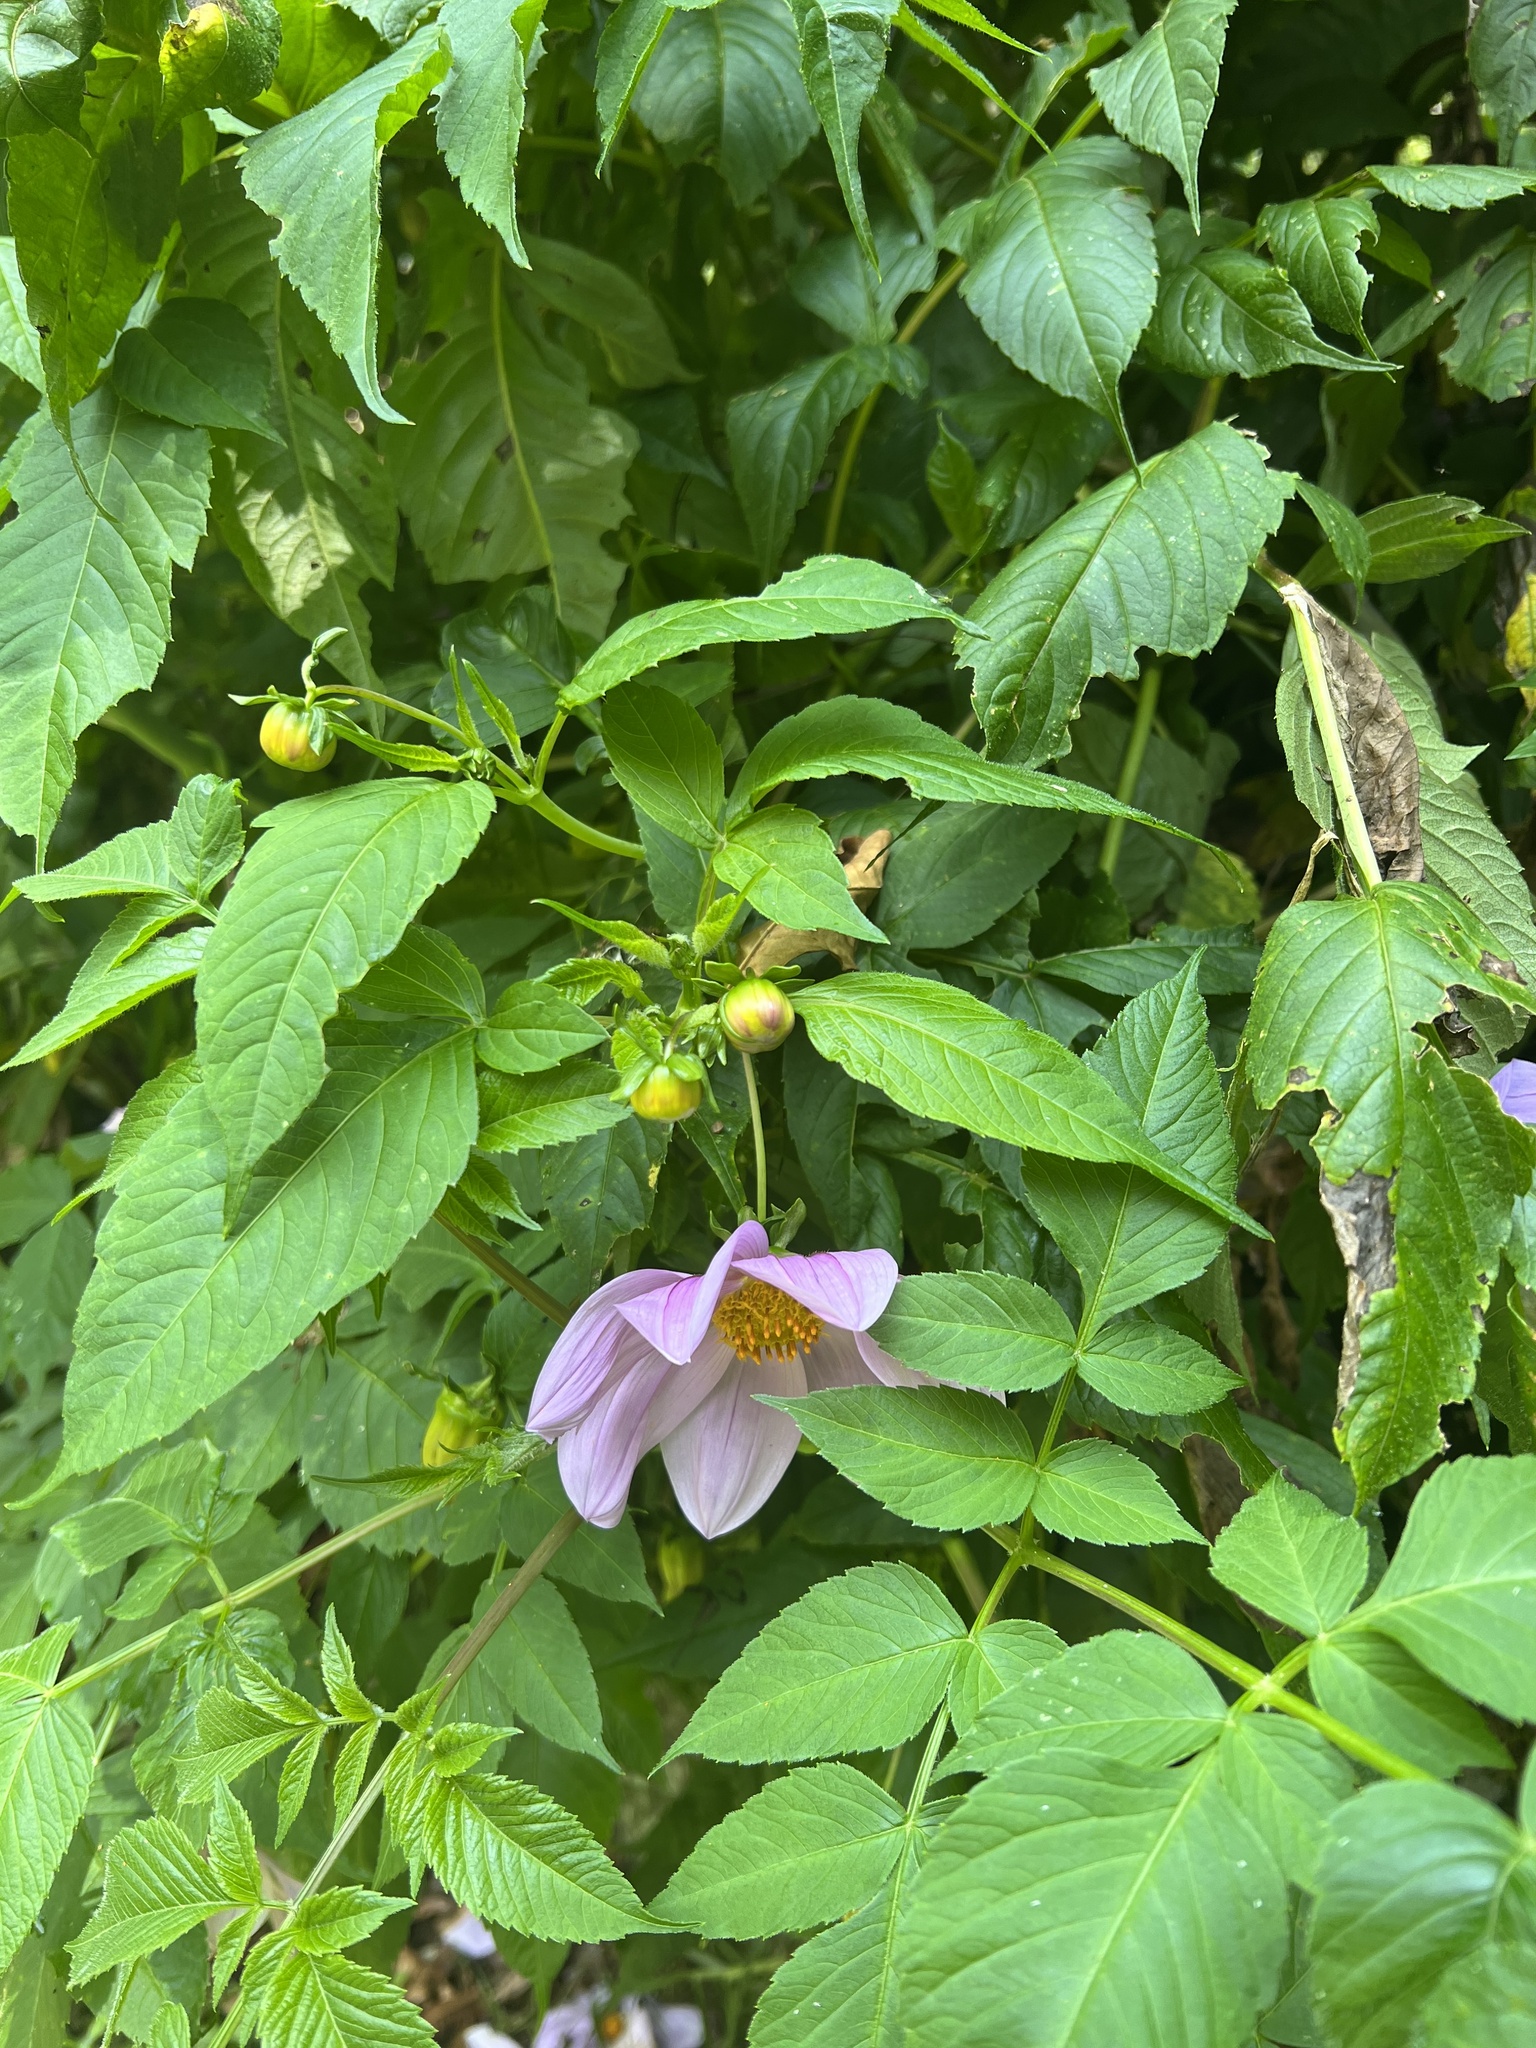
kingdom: Plantae
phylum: Tracheophyta
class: Magnoliopsida
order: Asterales
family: Asteraceae
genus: Dahlia
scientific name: Dahlia imperialis
